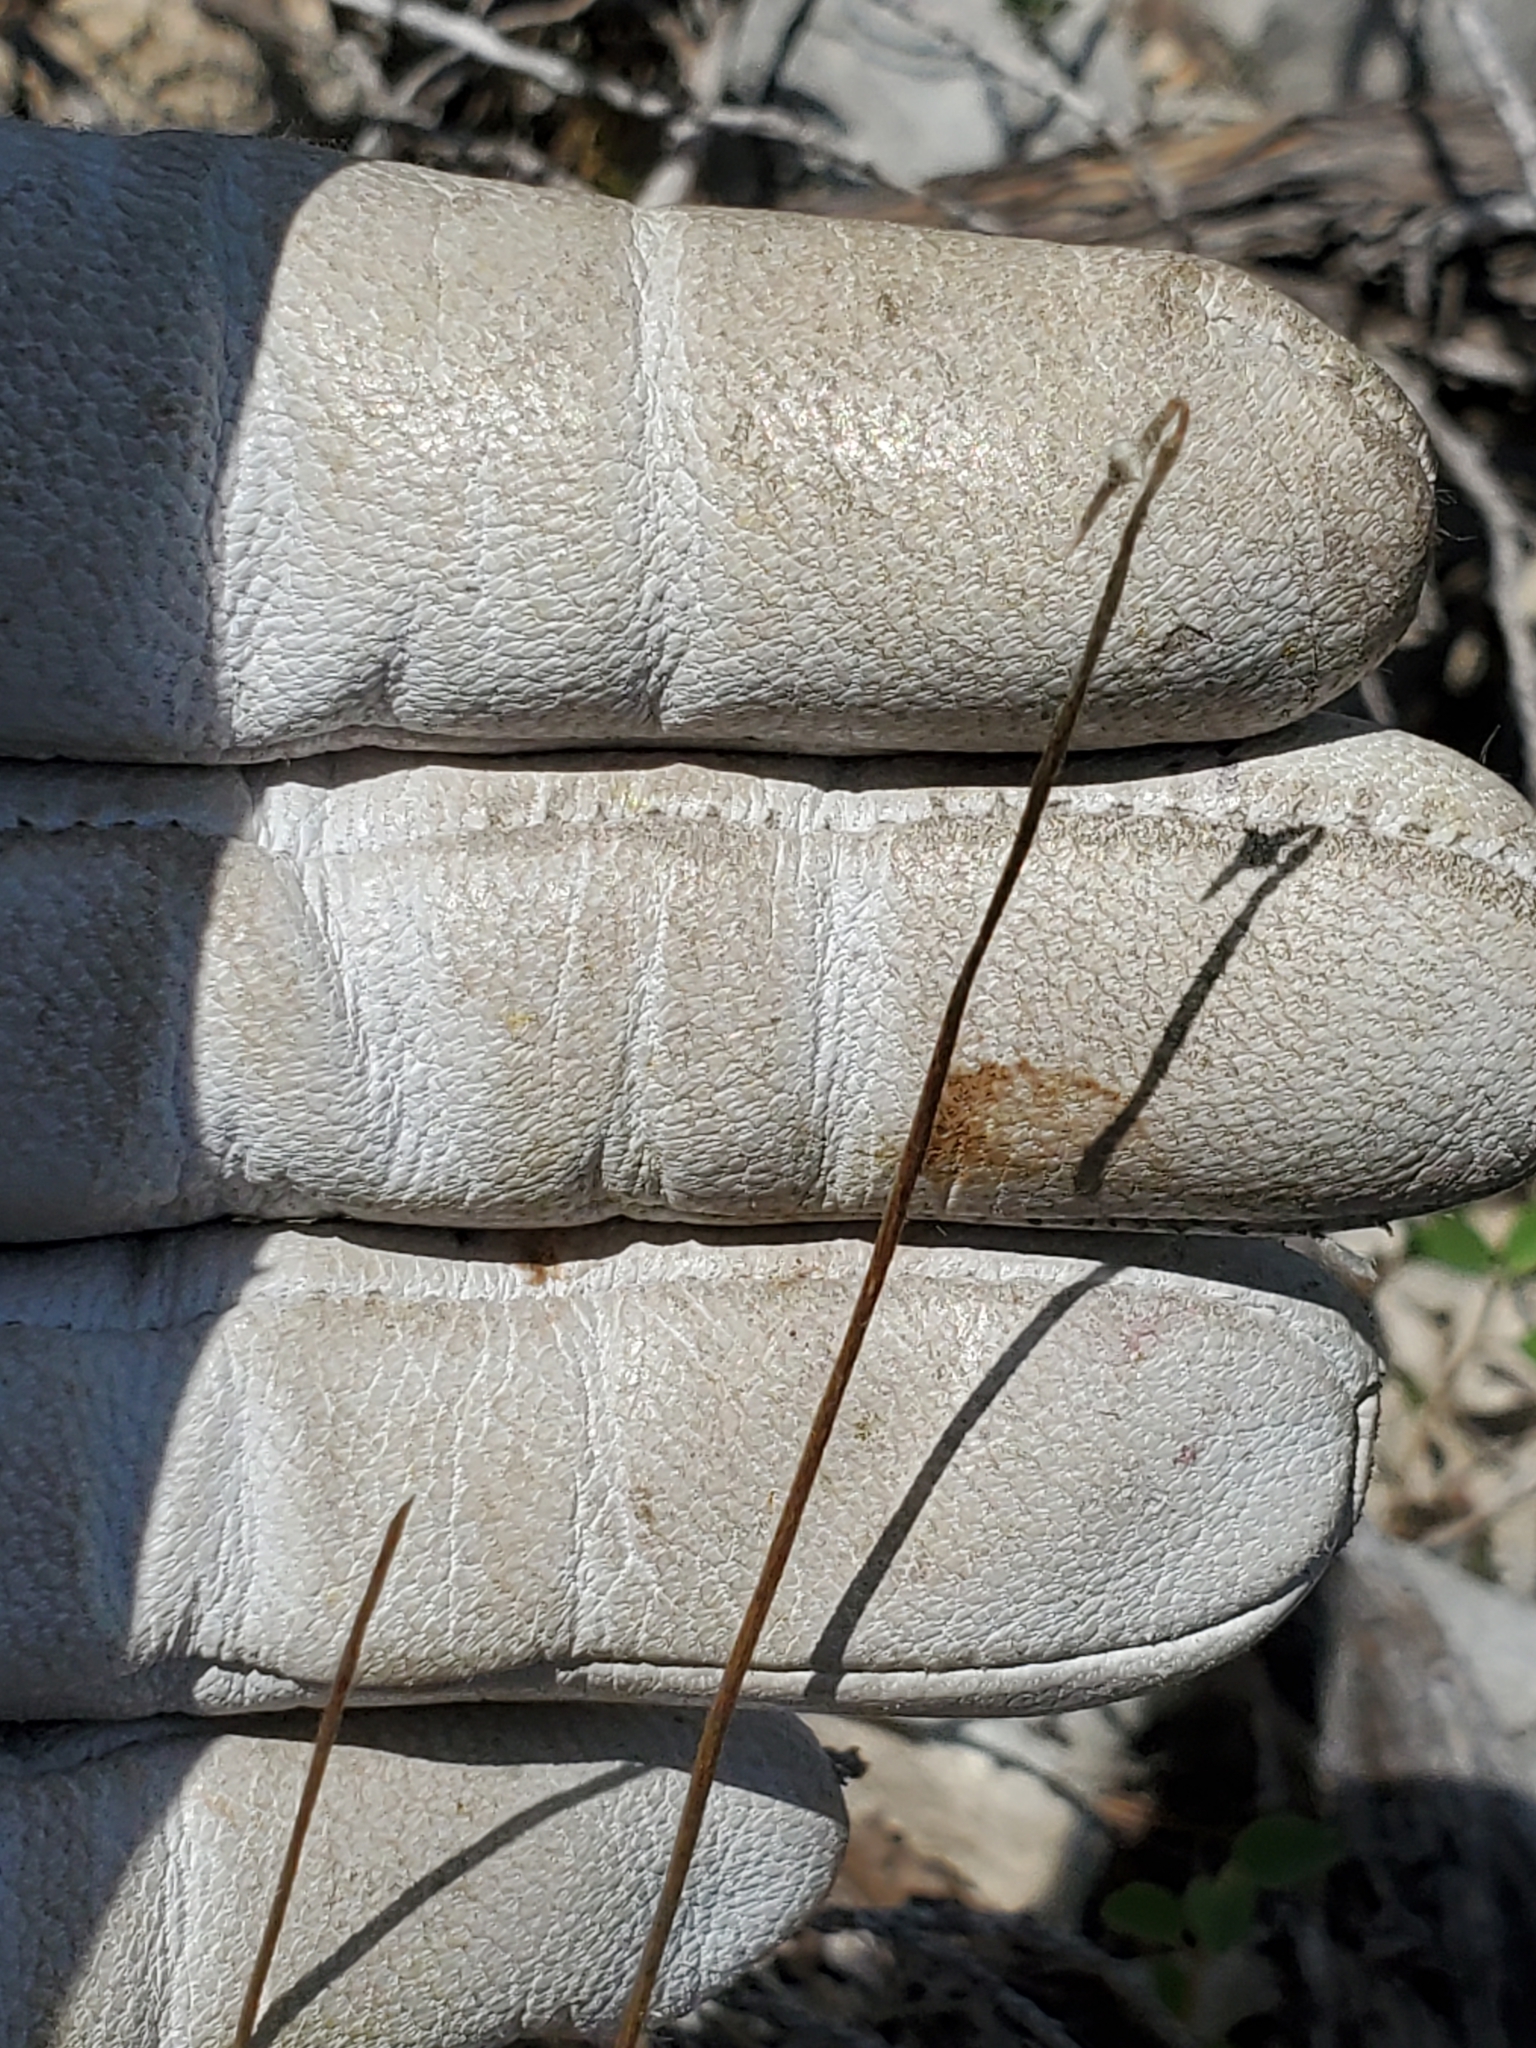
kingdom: Plantae
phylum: Tracheophyta
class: Magnoliopsida
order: Ranunculales
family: Ranunculaceae
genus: Anemone
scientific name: Anemone edwardsiana
